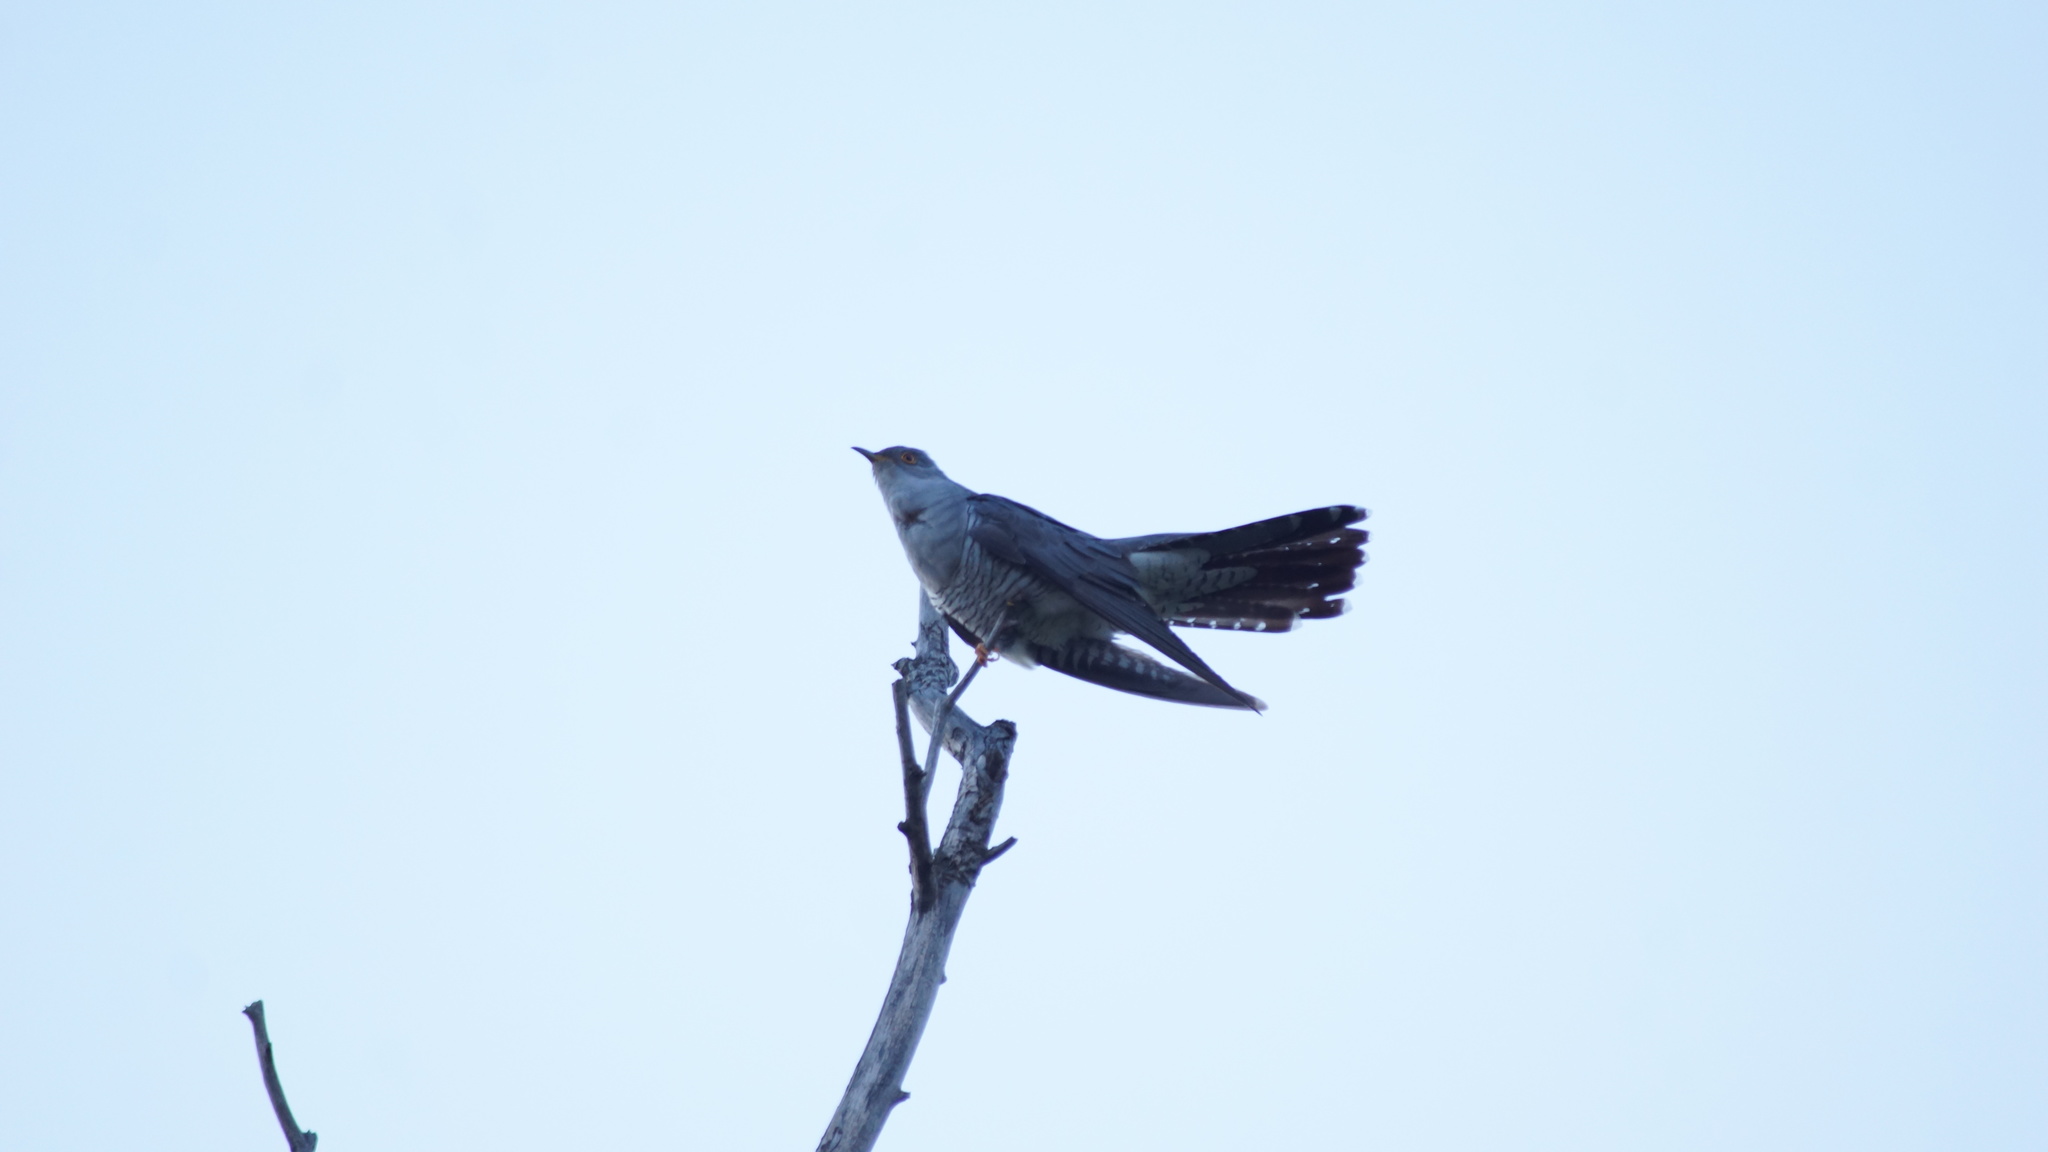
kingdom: Animalia
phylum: Chordata
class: Aves
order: Cuculiformes
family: Cuculidae
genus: Cuculus
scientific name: Cuculus canorus
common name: Common cuckoo
